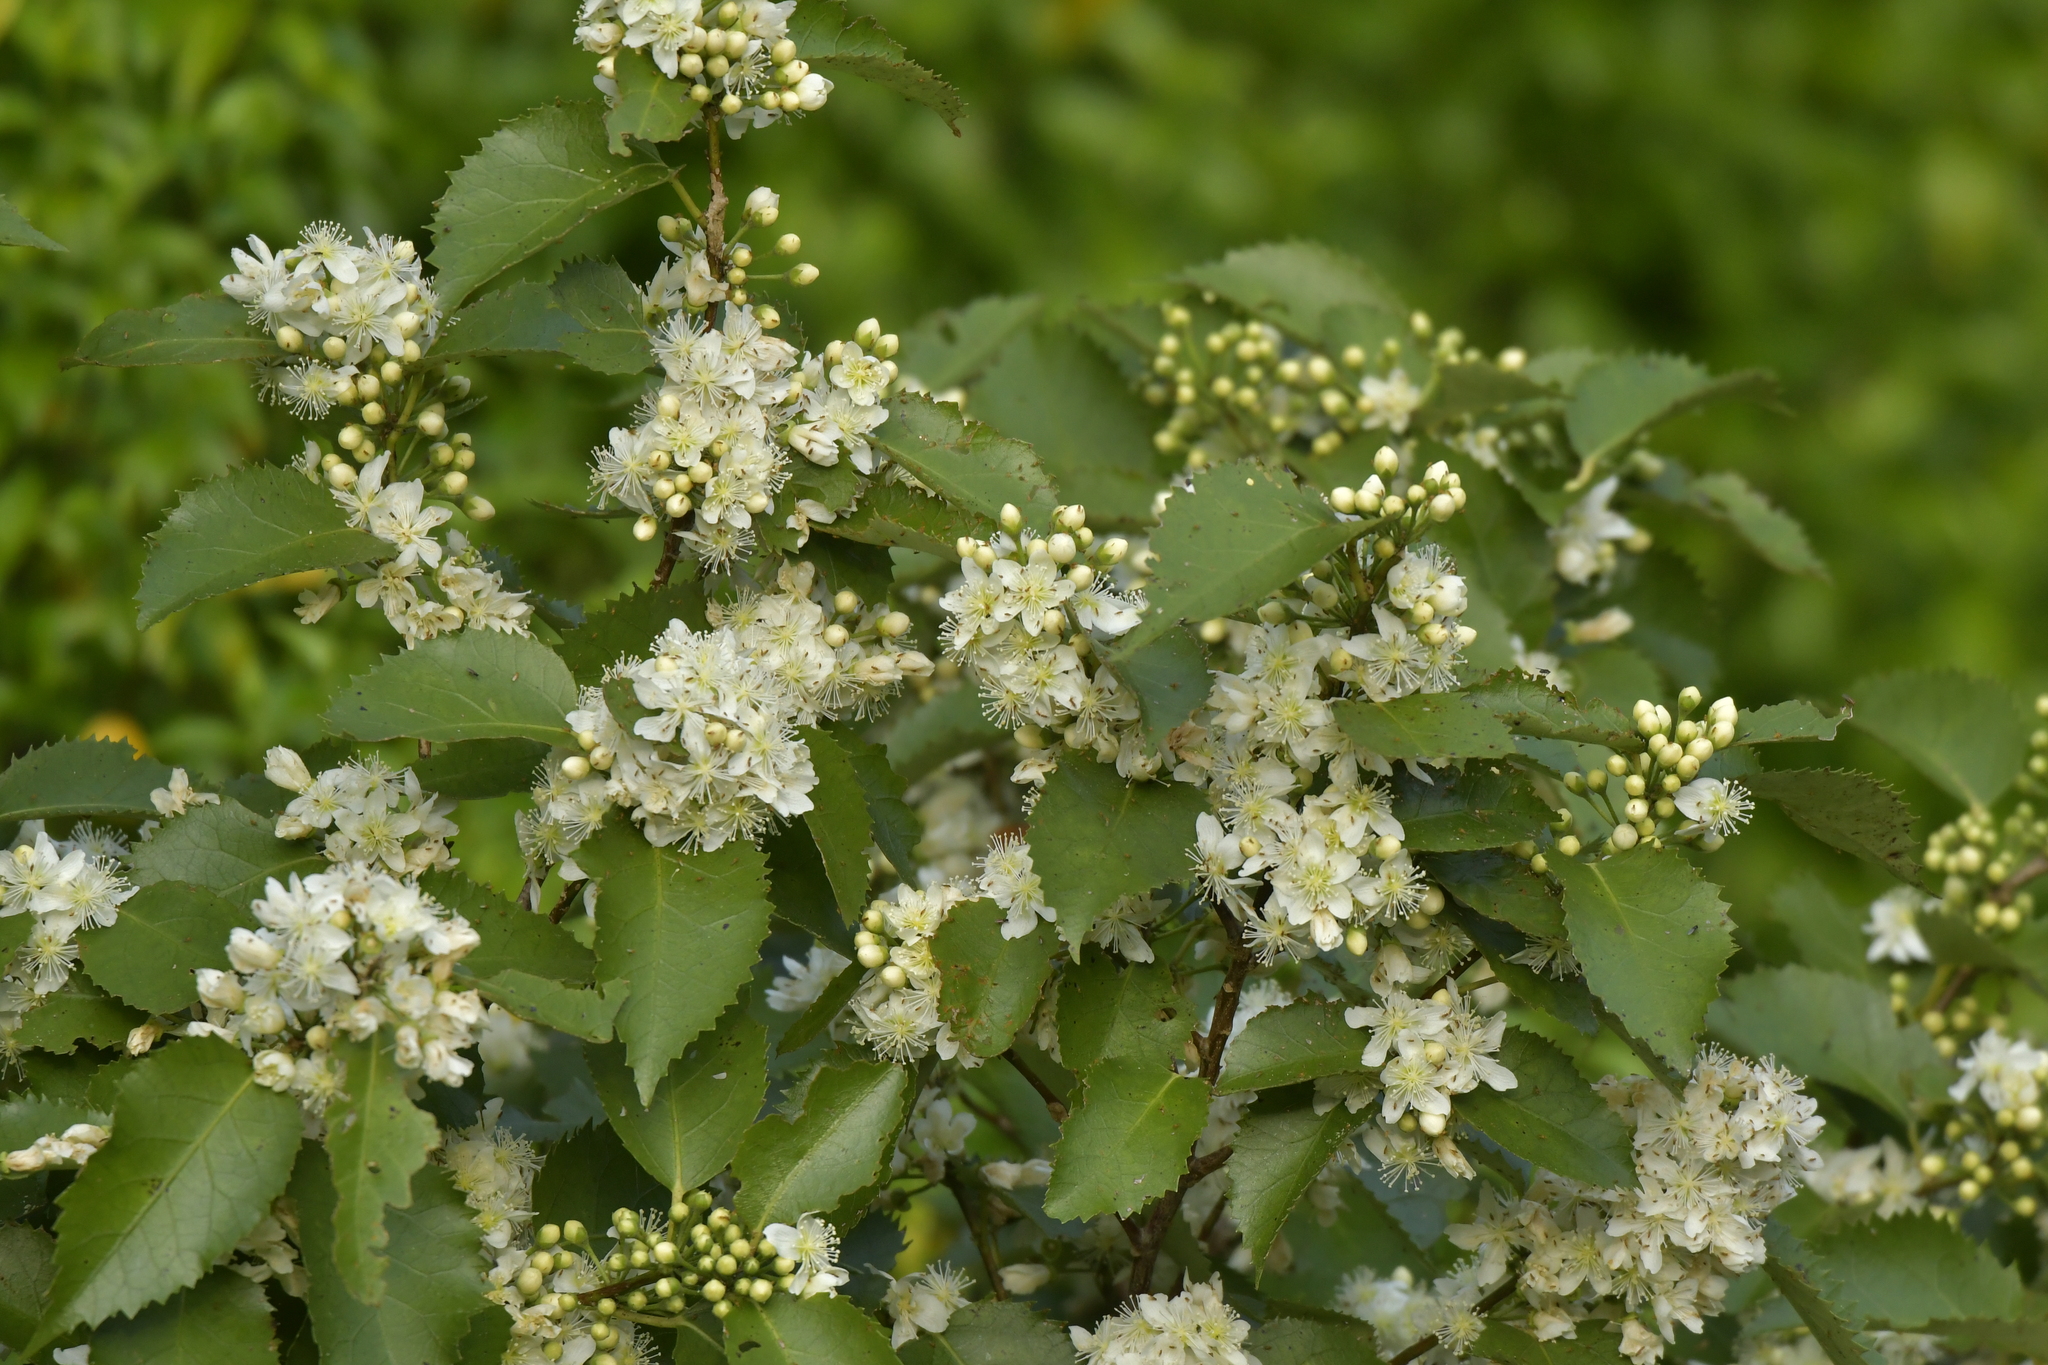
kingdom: Plantae
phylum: Tracheophyta
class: Magnoliopsida
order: Malvales
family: Malvaceae
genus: Hoheria
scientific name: Hoheria populnea
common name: Lacebark
